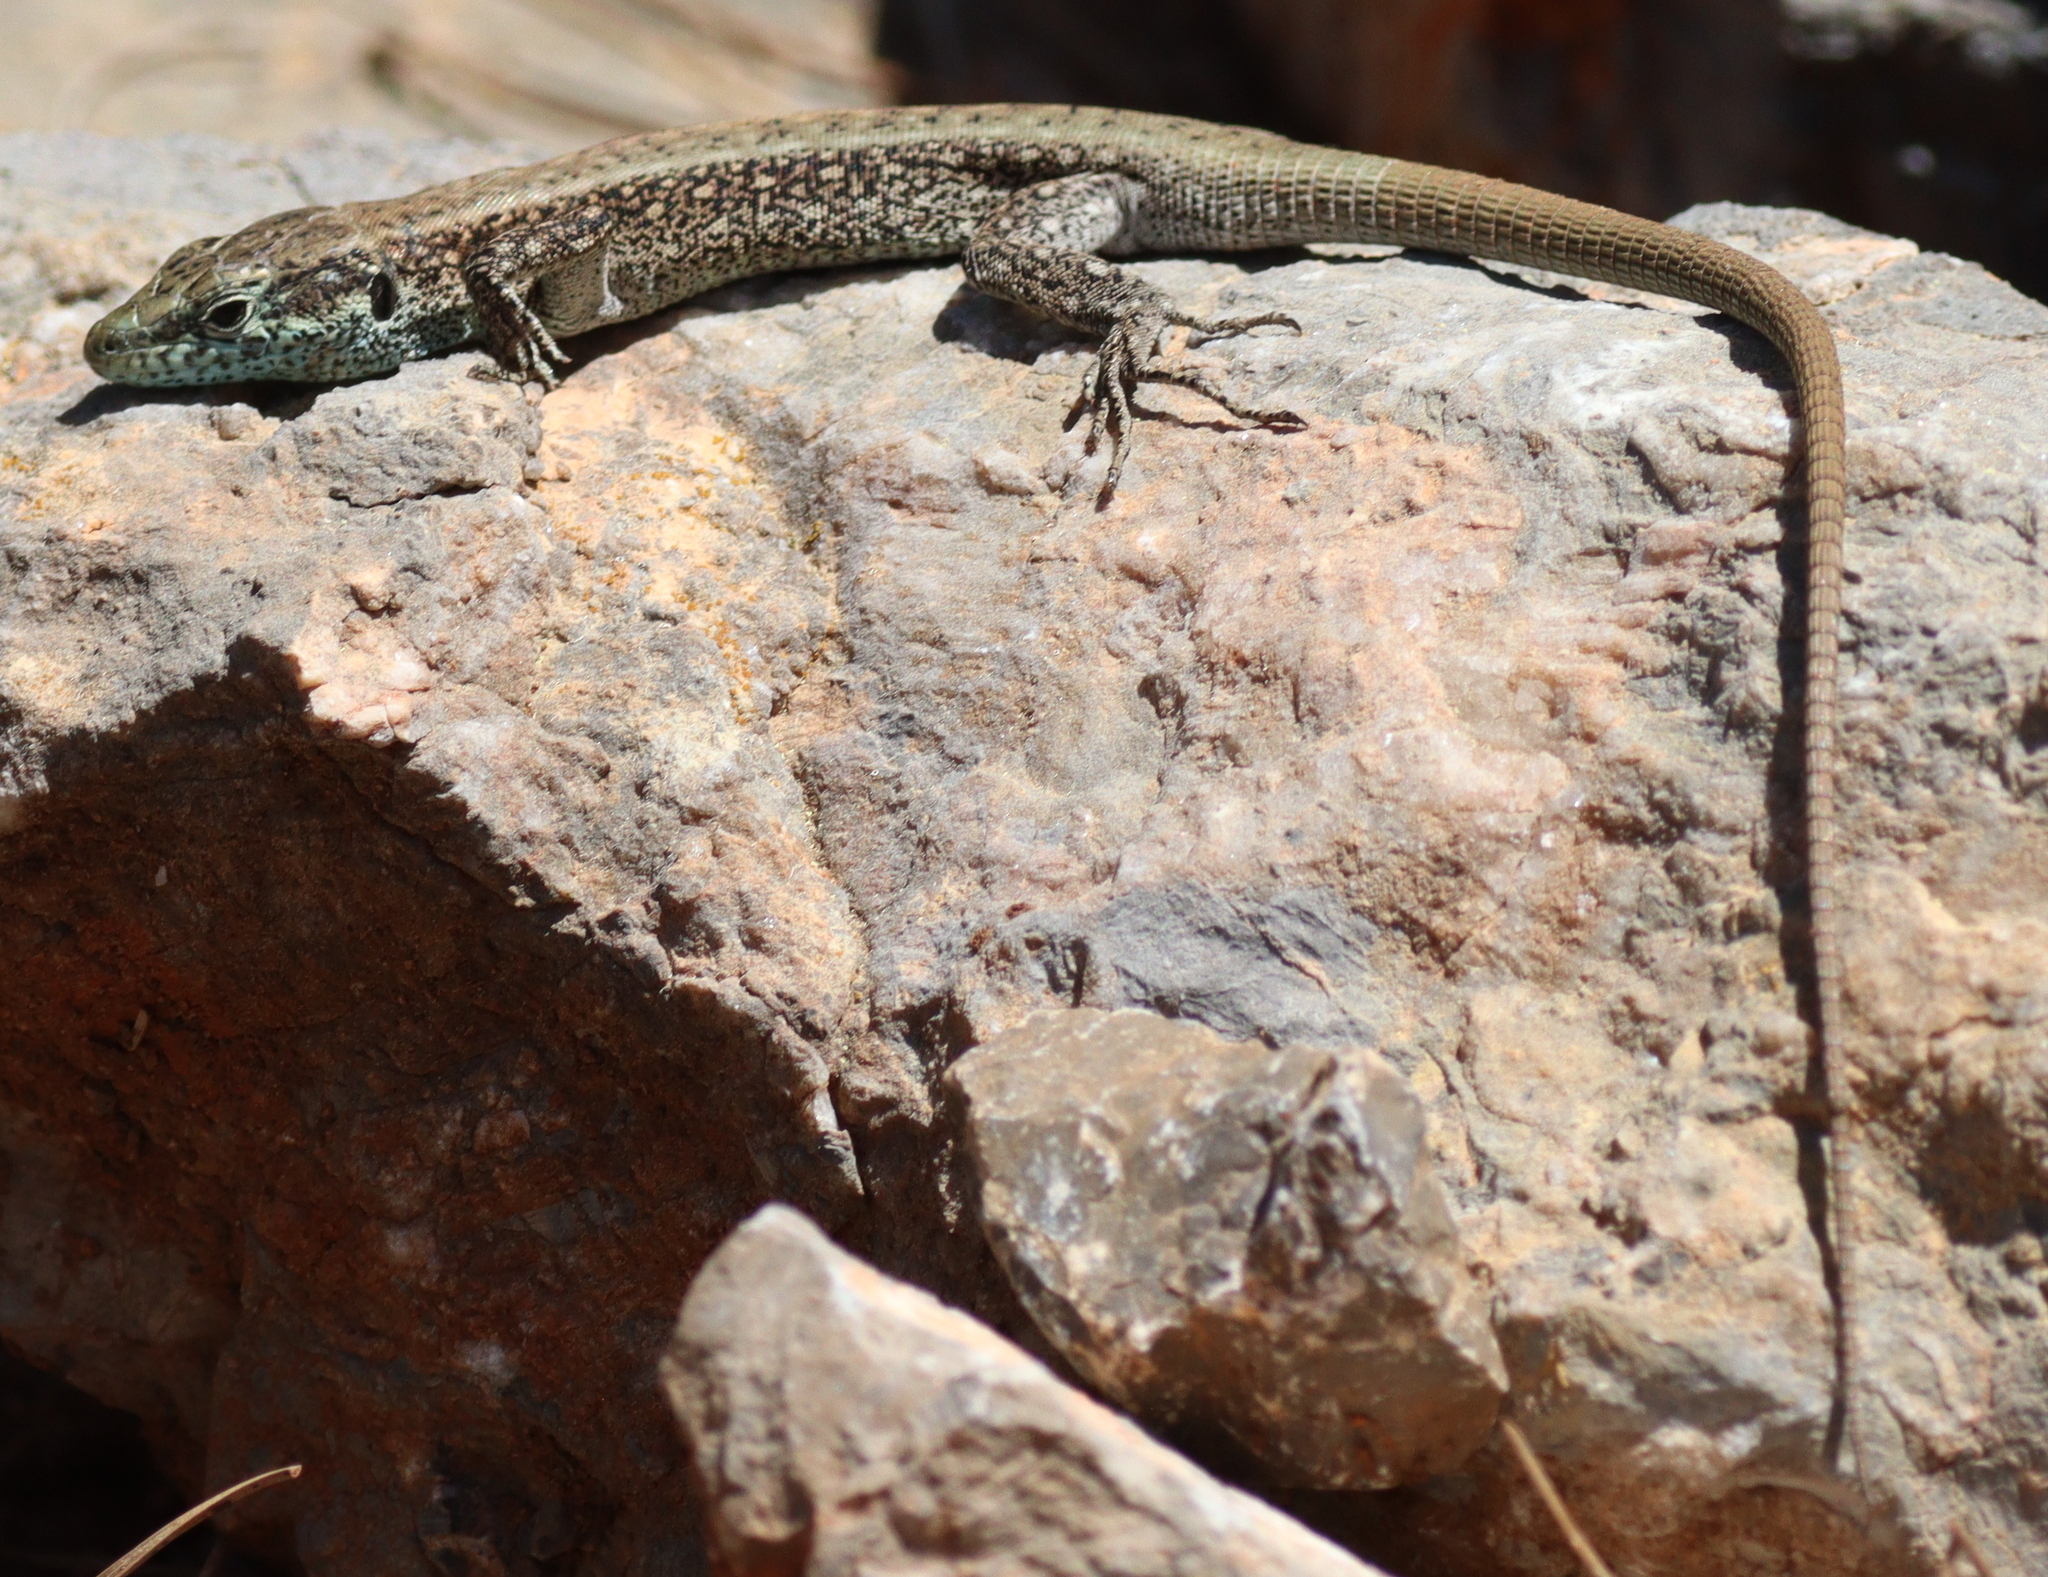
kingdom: Animalia
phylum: Chordata
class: Squamata
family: Lacertidae
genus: Anatololacerta
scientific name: Anatololacerta danfordi
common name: Danford's lizard
